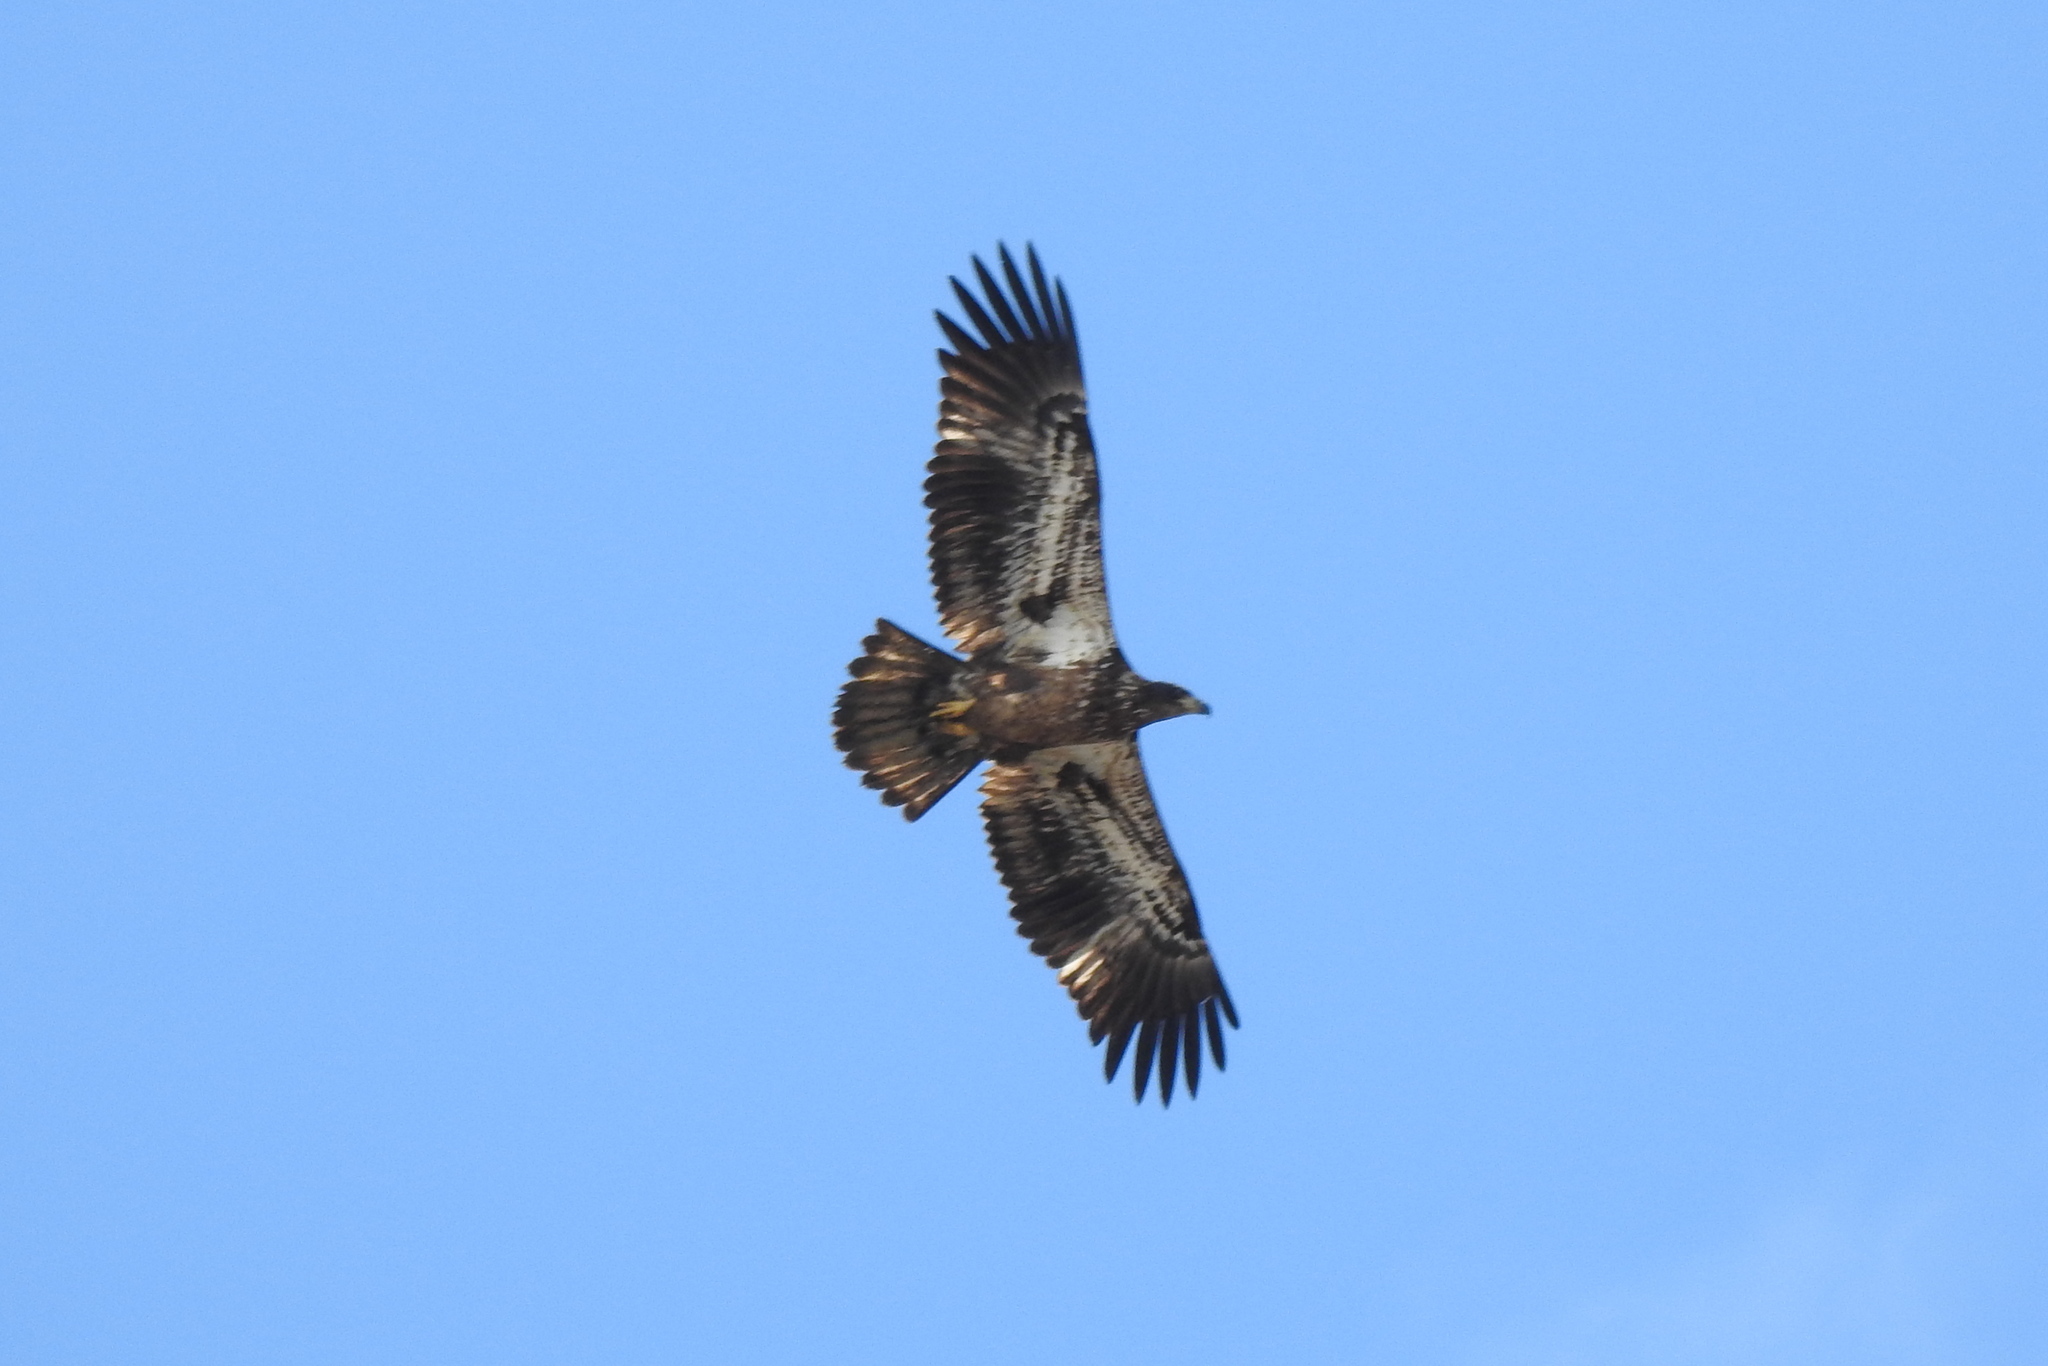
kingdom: Animalia
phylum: Chordata
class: Aves
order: Accipitriformes
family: Accipitridae
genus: Haliaeetus
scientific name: Haliaeetus leucocephalus
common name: Bald eagle
